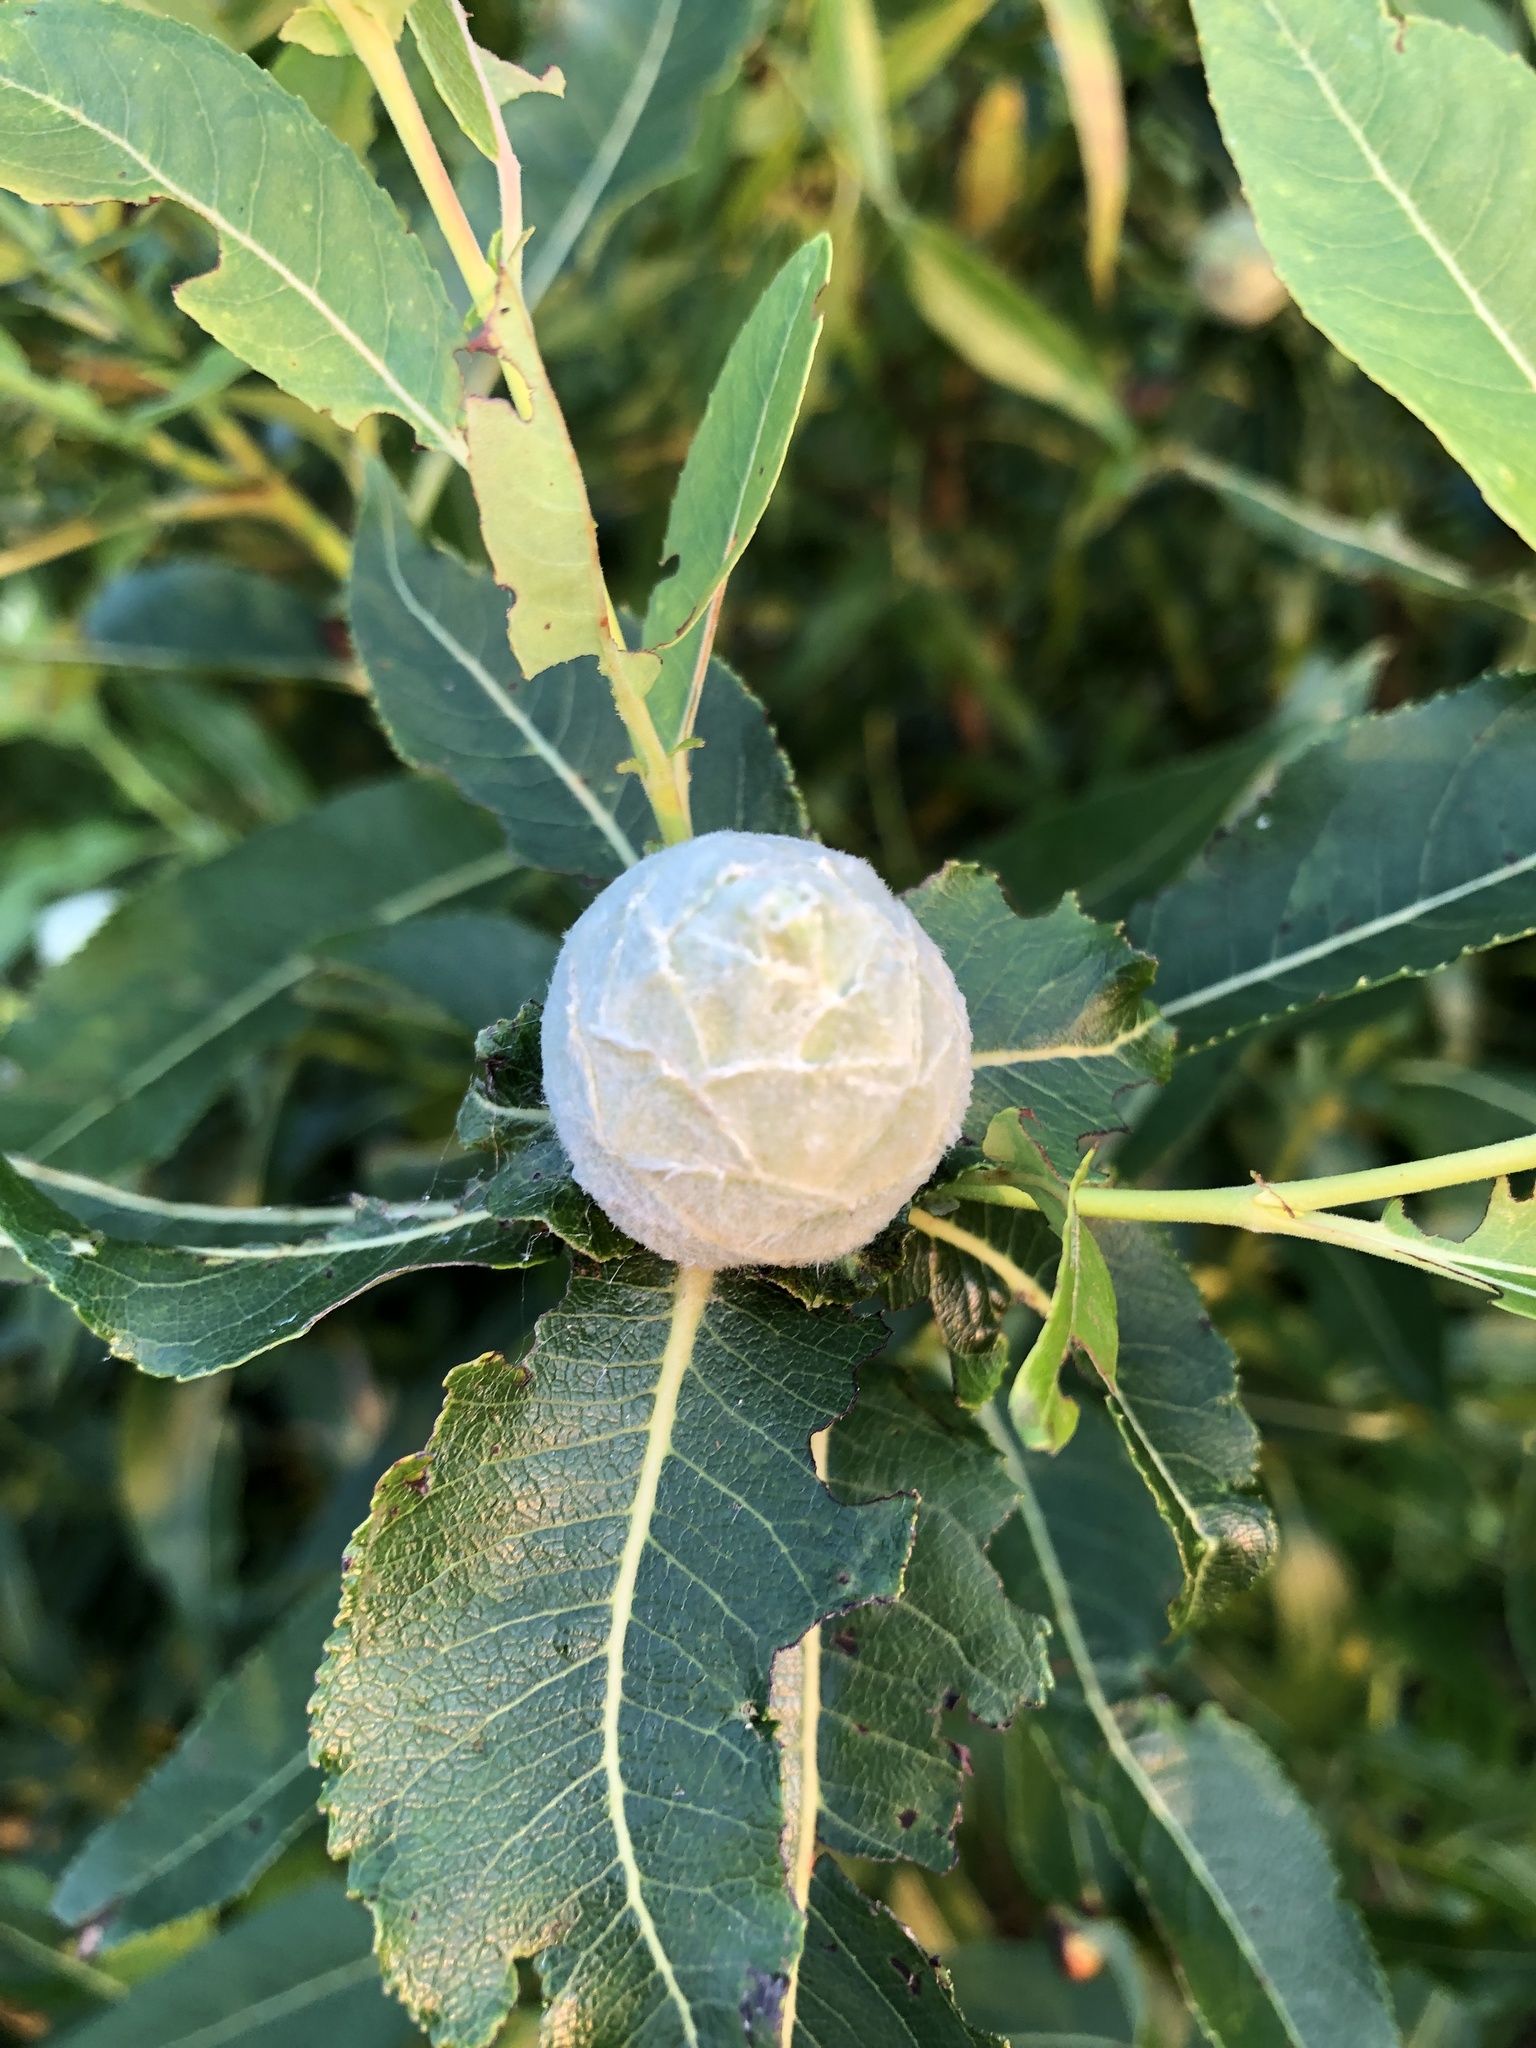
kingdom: Animalia
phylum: Arthropoda
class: Insecta
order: Diptera
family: Cecidomyiidae
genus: Rabdophaga
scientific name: Rabdophaga strobiloides
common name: Willow pinecone gall midge
